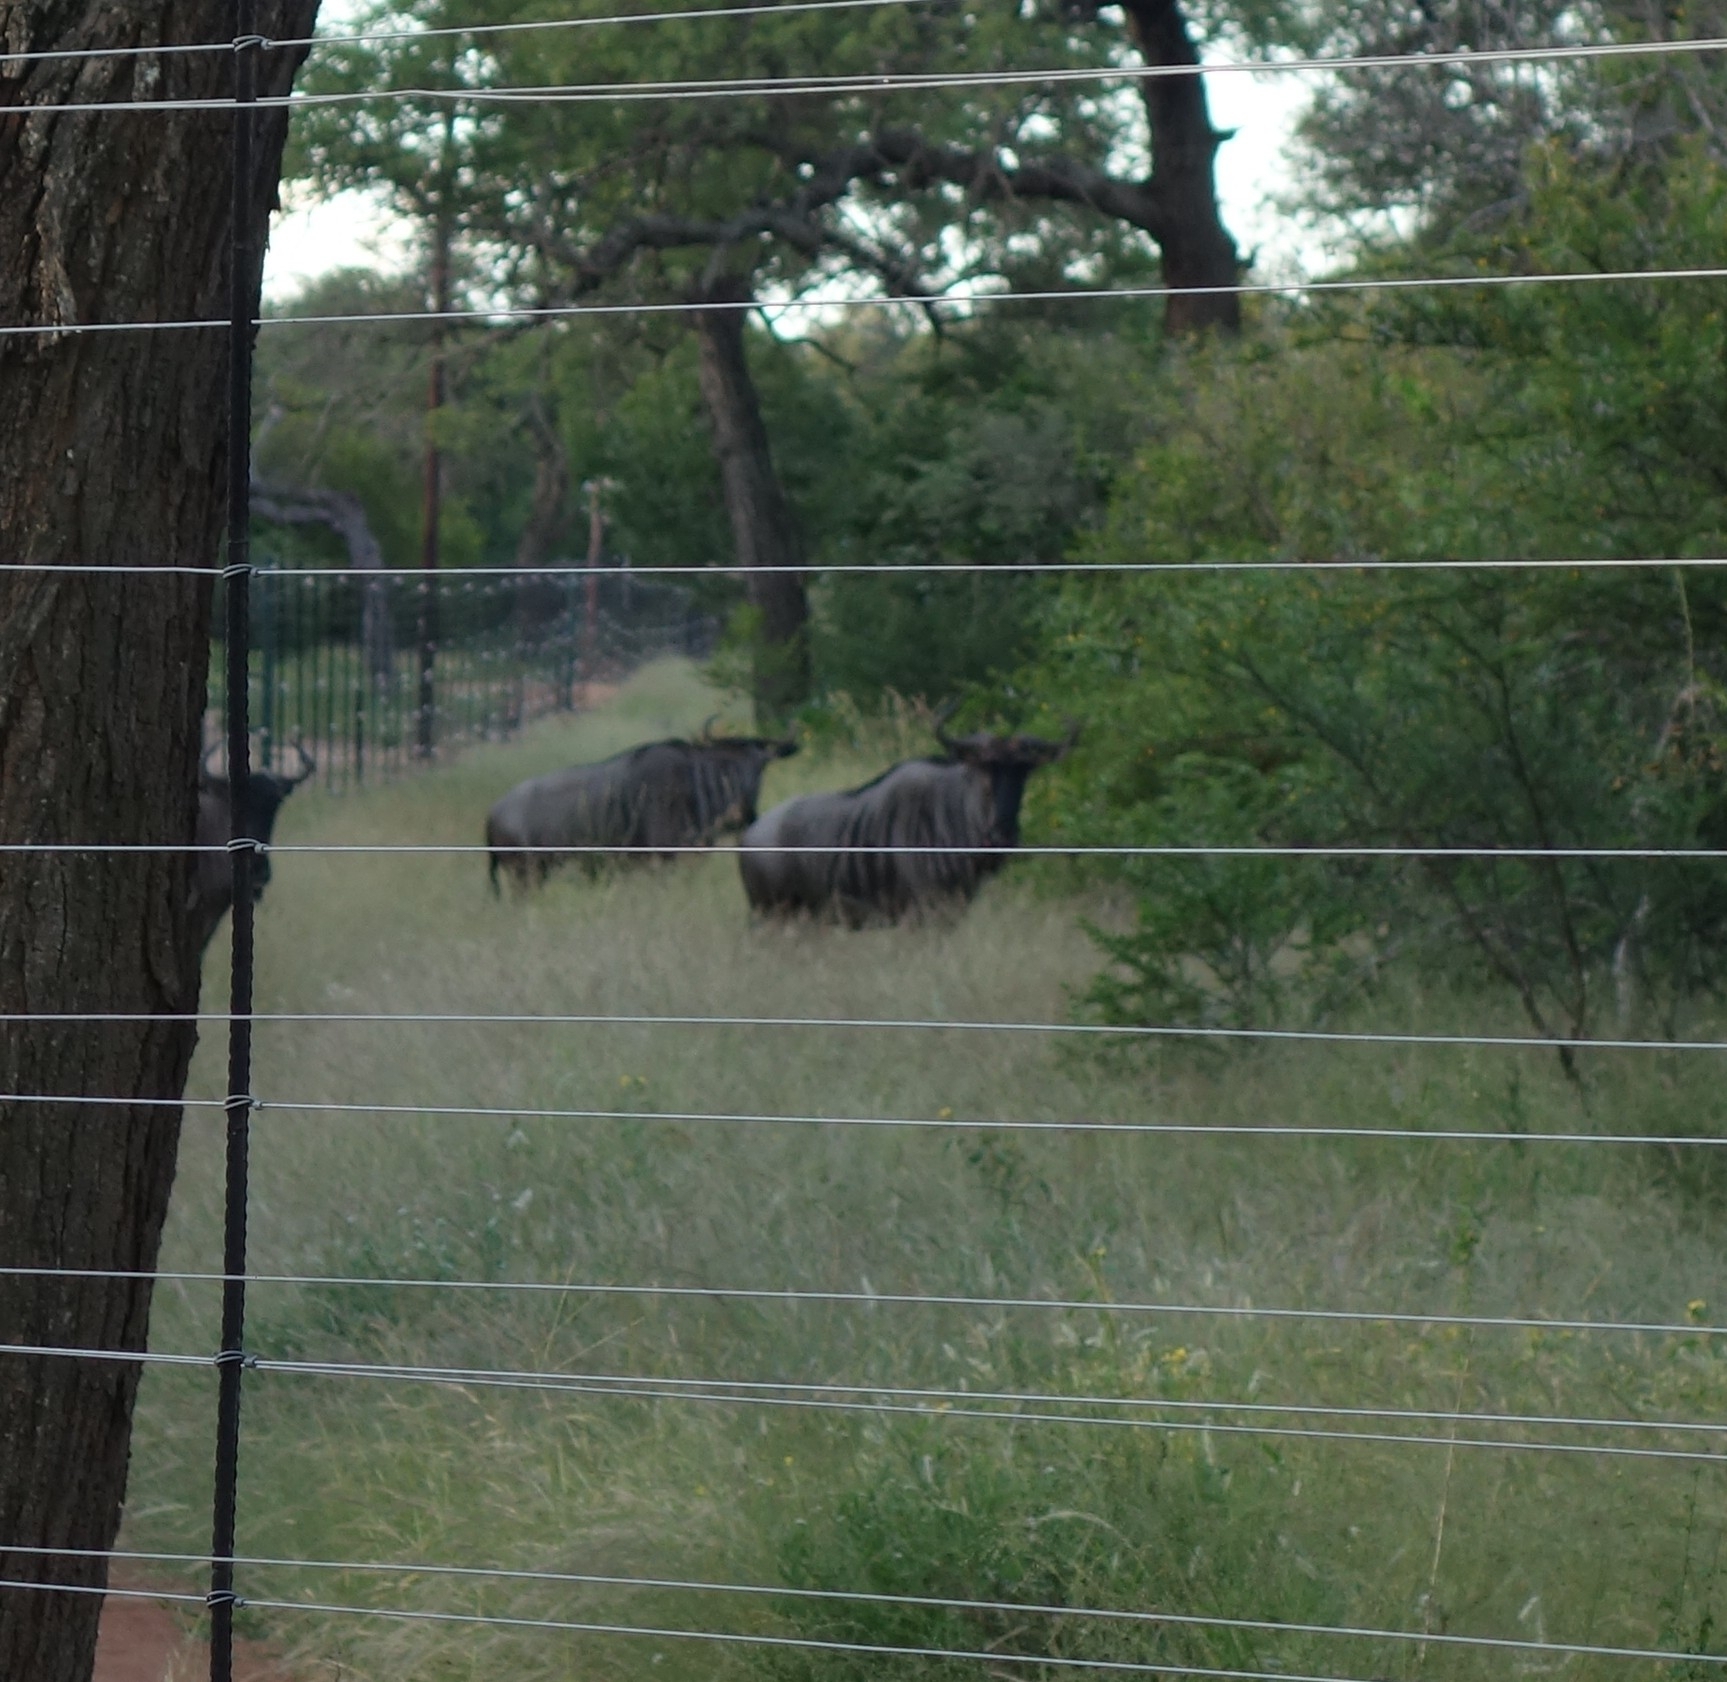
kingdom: Animalia
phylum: Chordata
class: Mammalia
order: Artiodactyla
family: Bovidae
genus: Connochaetes
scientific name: Connochaetes taurinus
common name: Blue wildebeest
